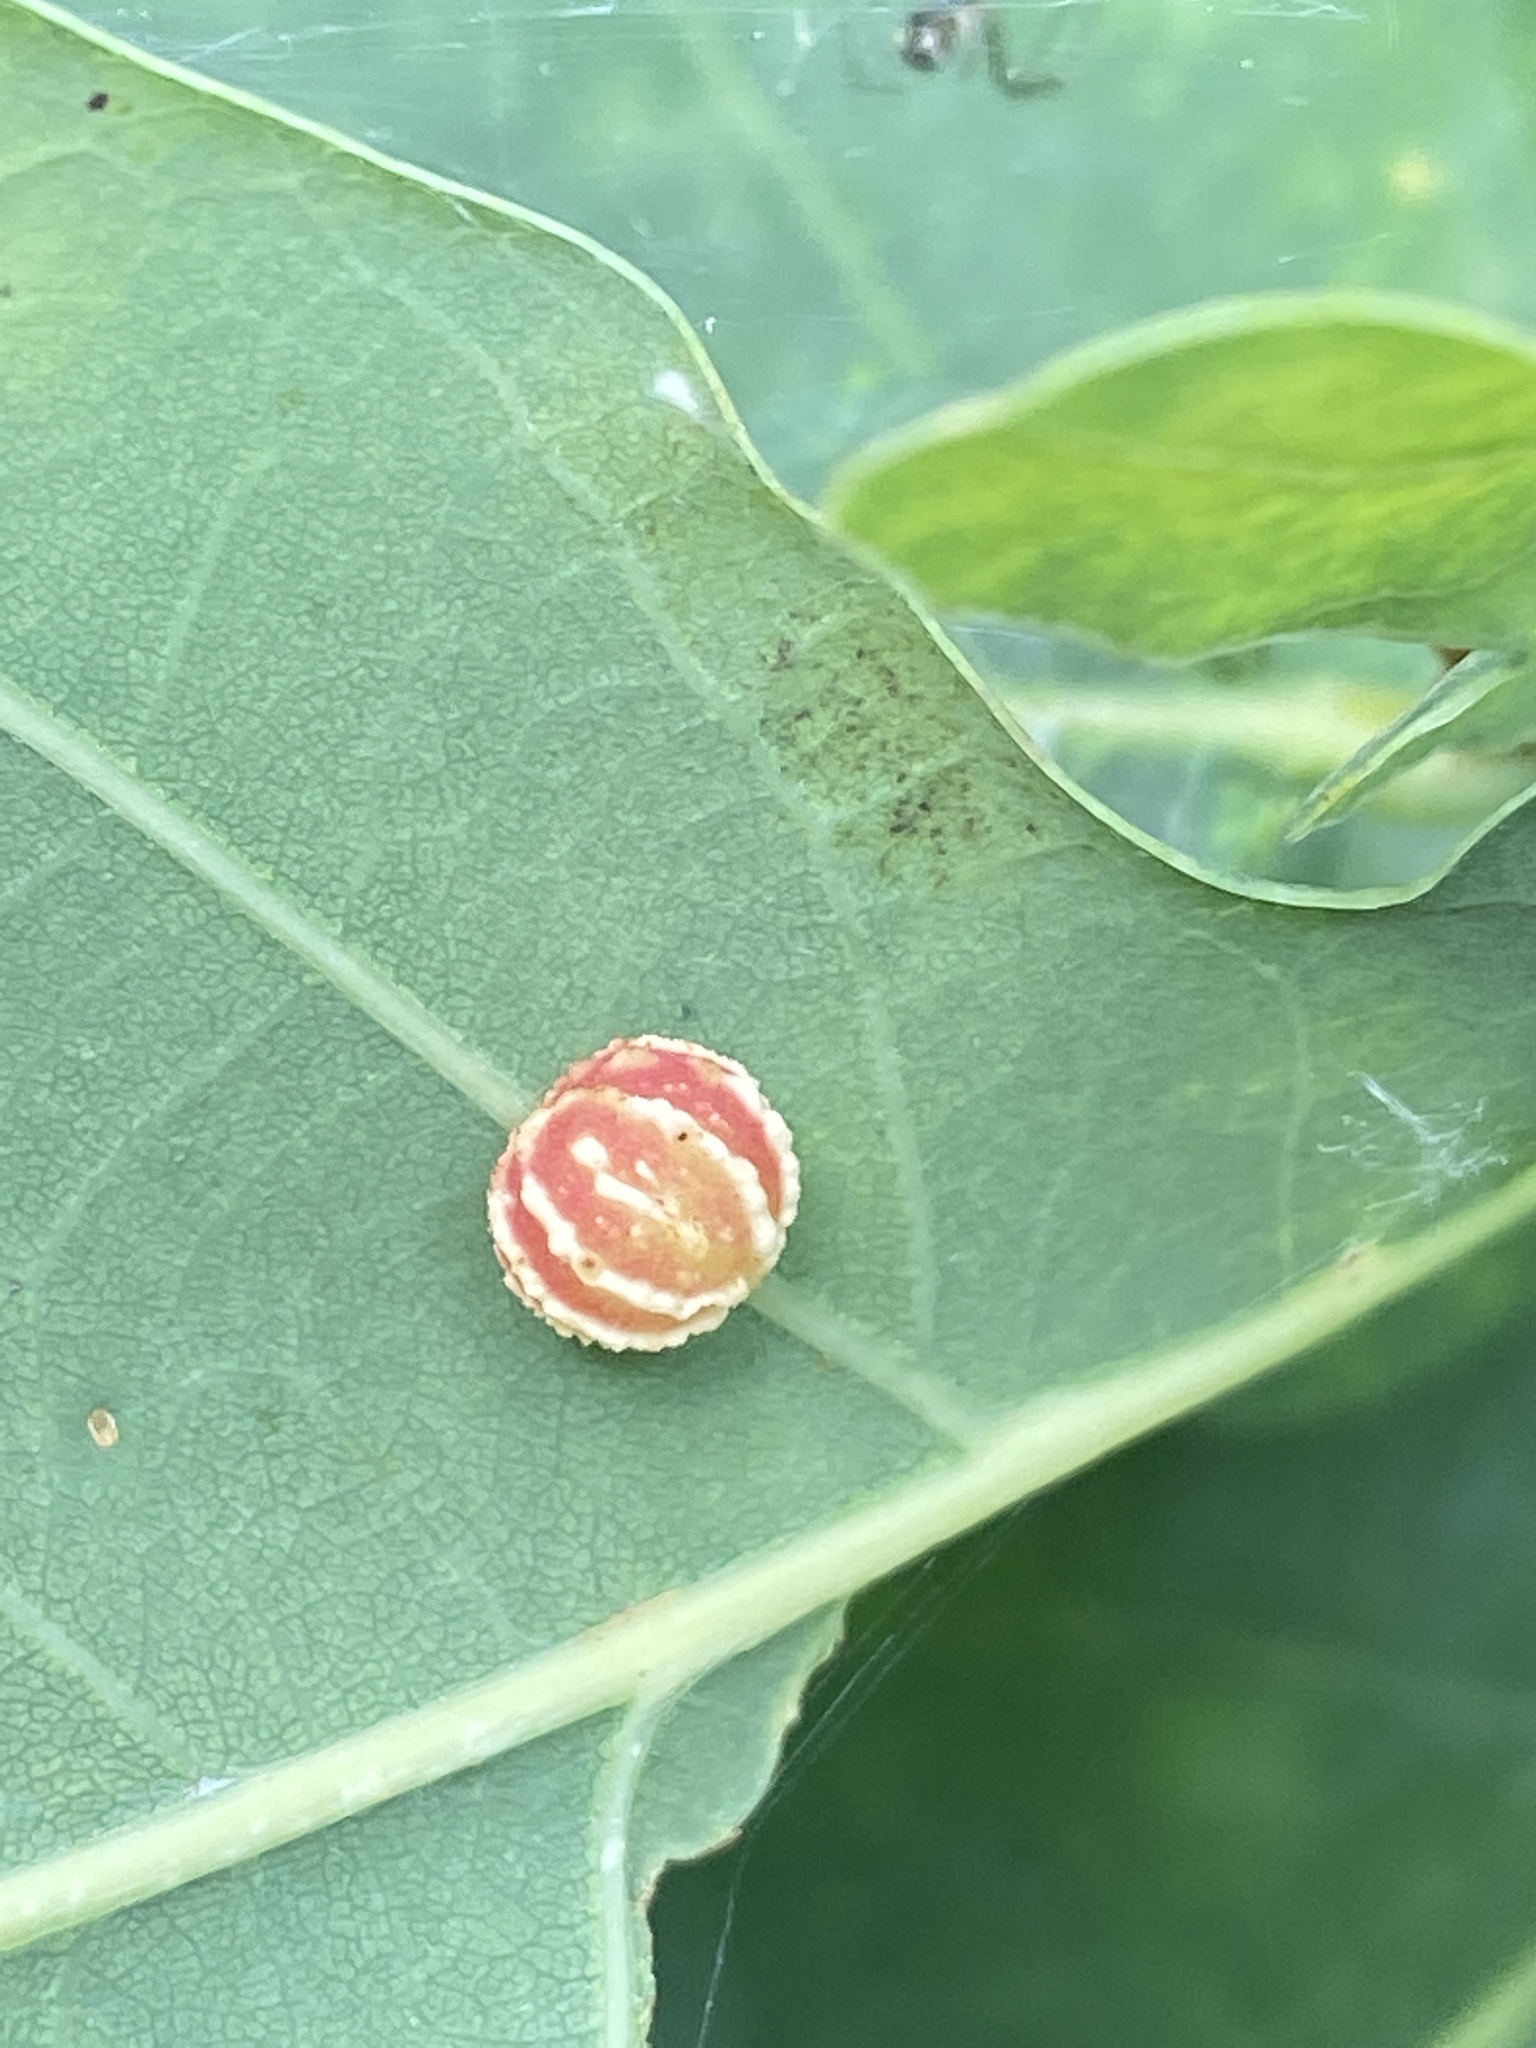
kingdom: Animalia
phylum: Arthropoda
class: Insecta
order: Hymenoptera
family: Cynipidae
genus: Cynips
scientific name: Cynips longiventris
